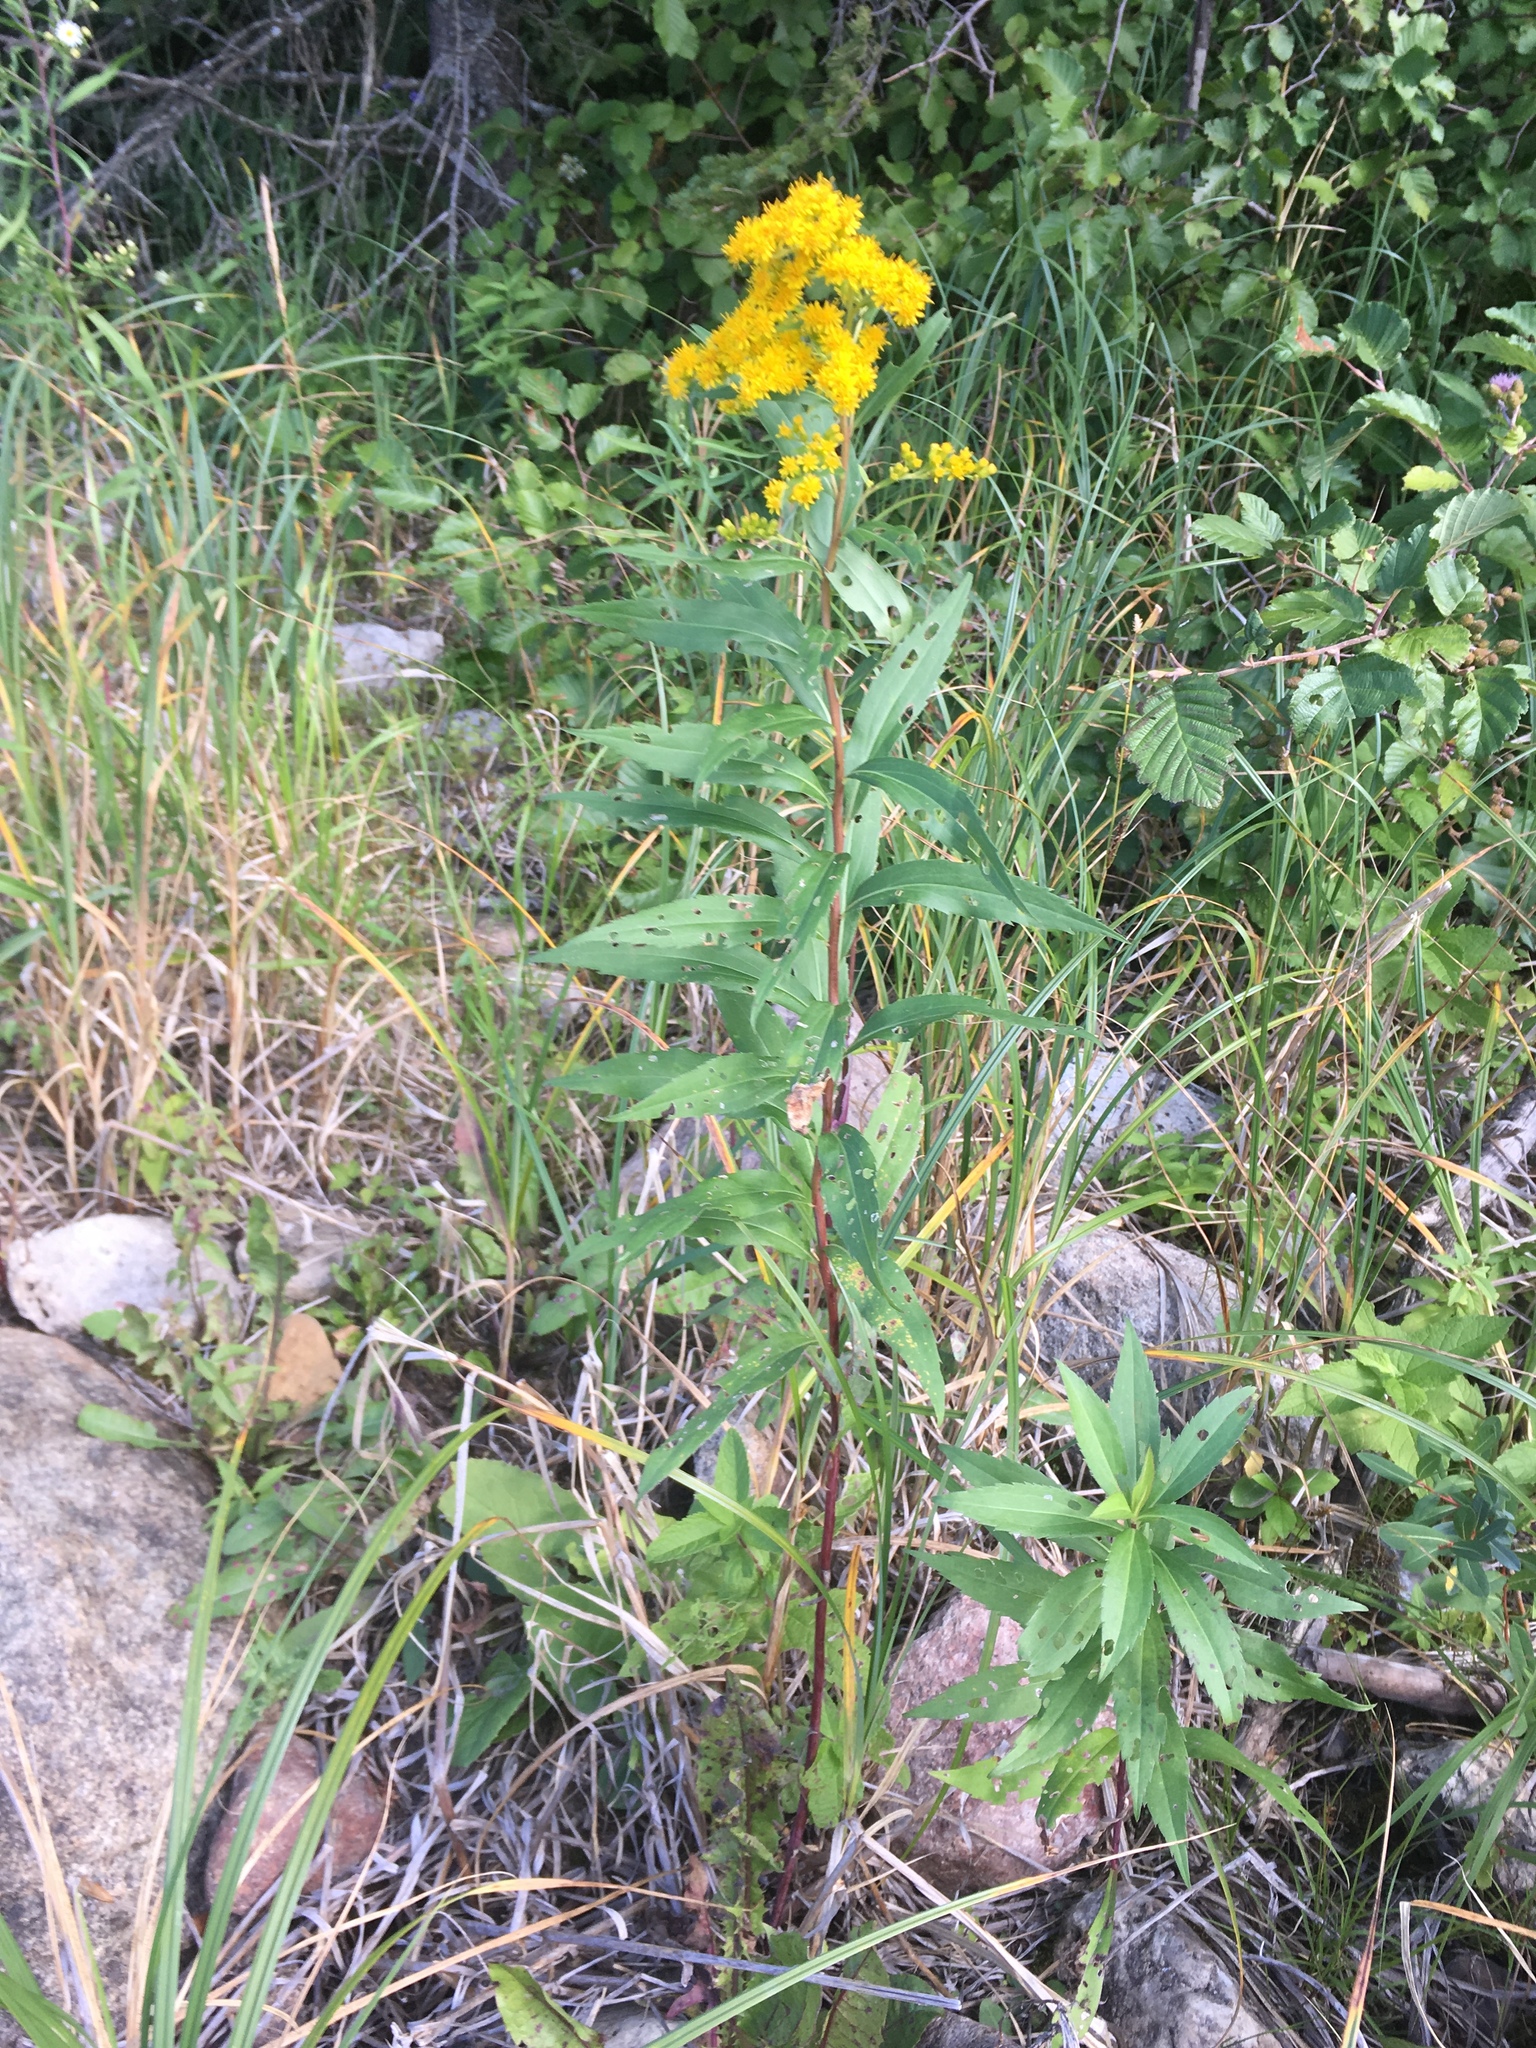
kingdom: Plantae
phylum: Tracheophyta
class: Magnoliopsida
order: Asterales
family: Asteraceae
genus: Solidago
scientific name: Solidago canadensis
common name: Canada goldenrod
